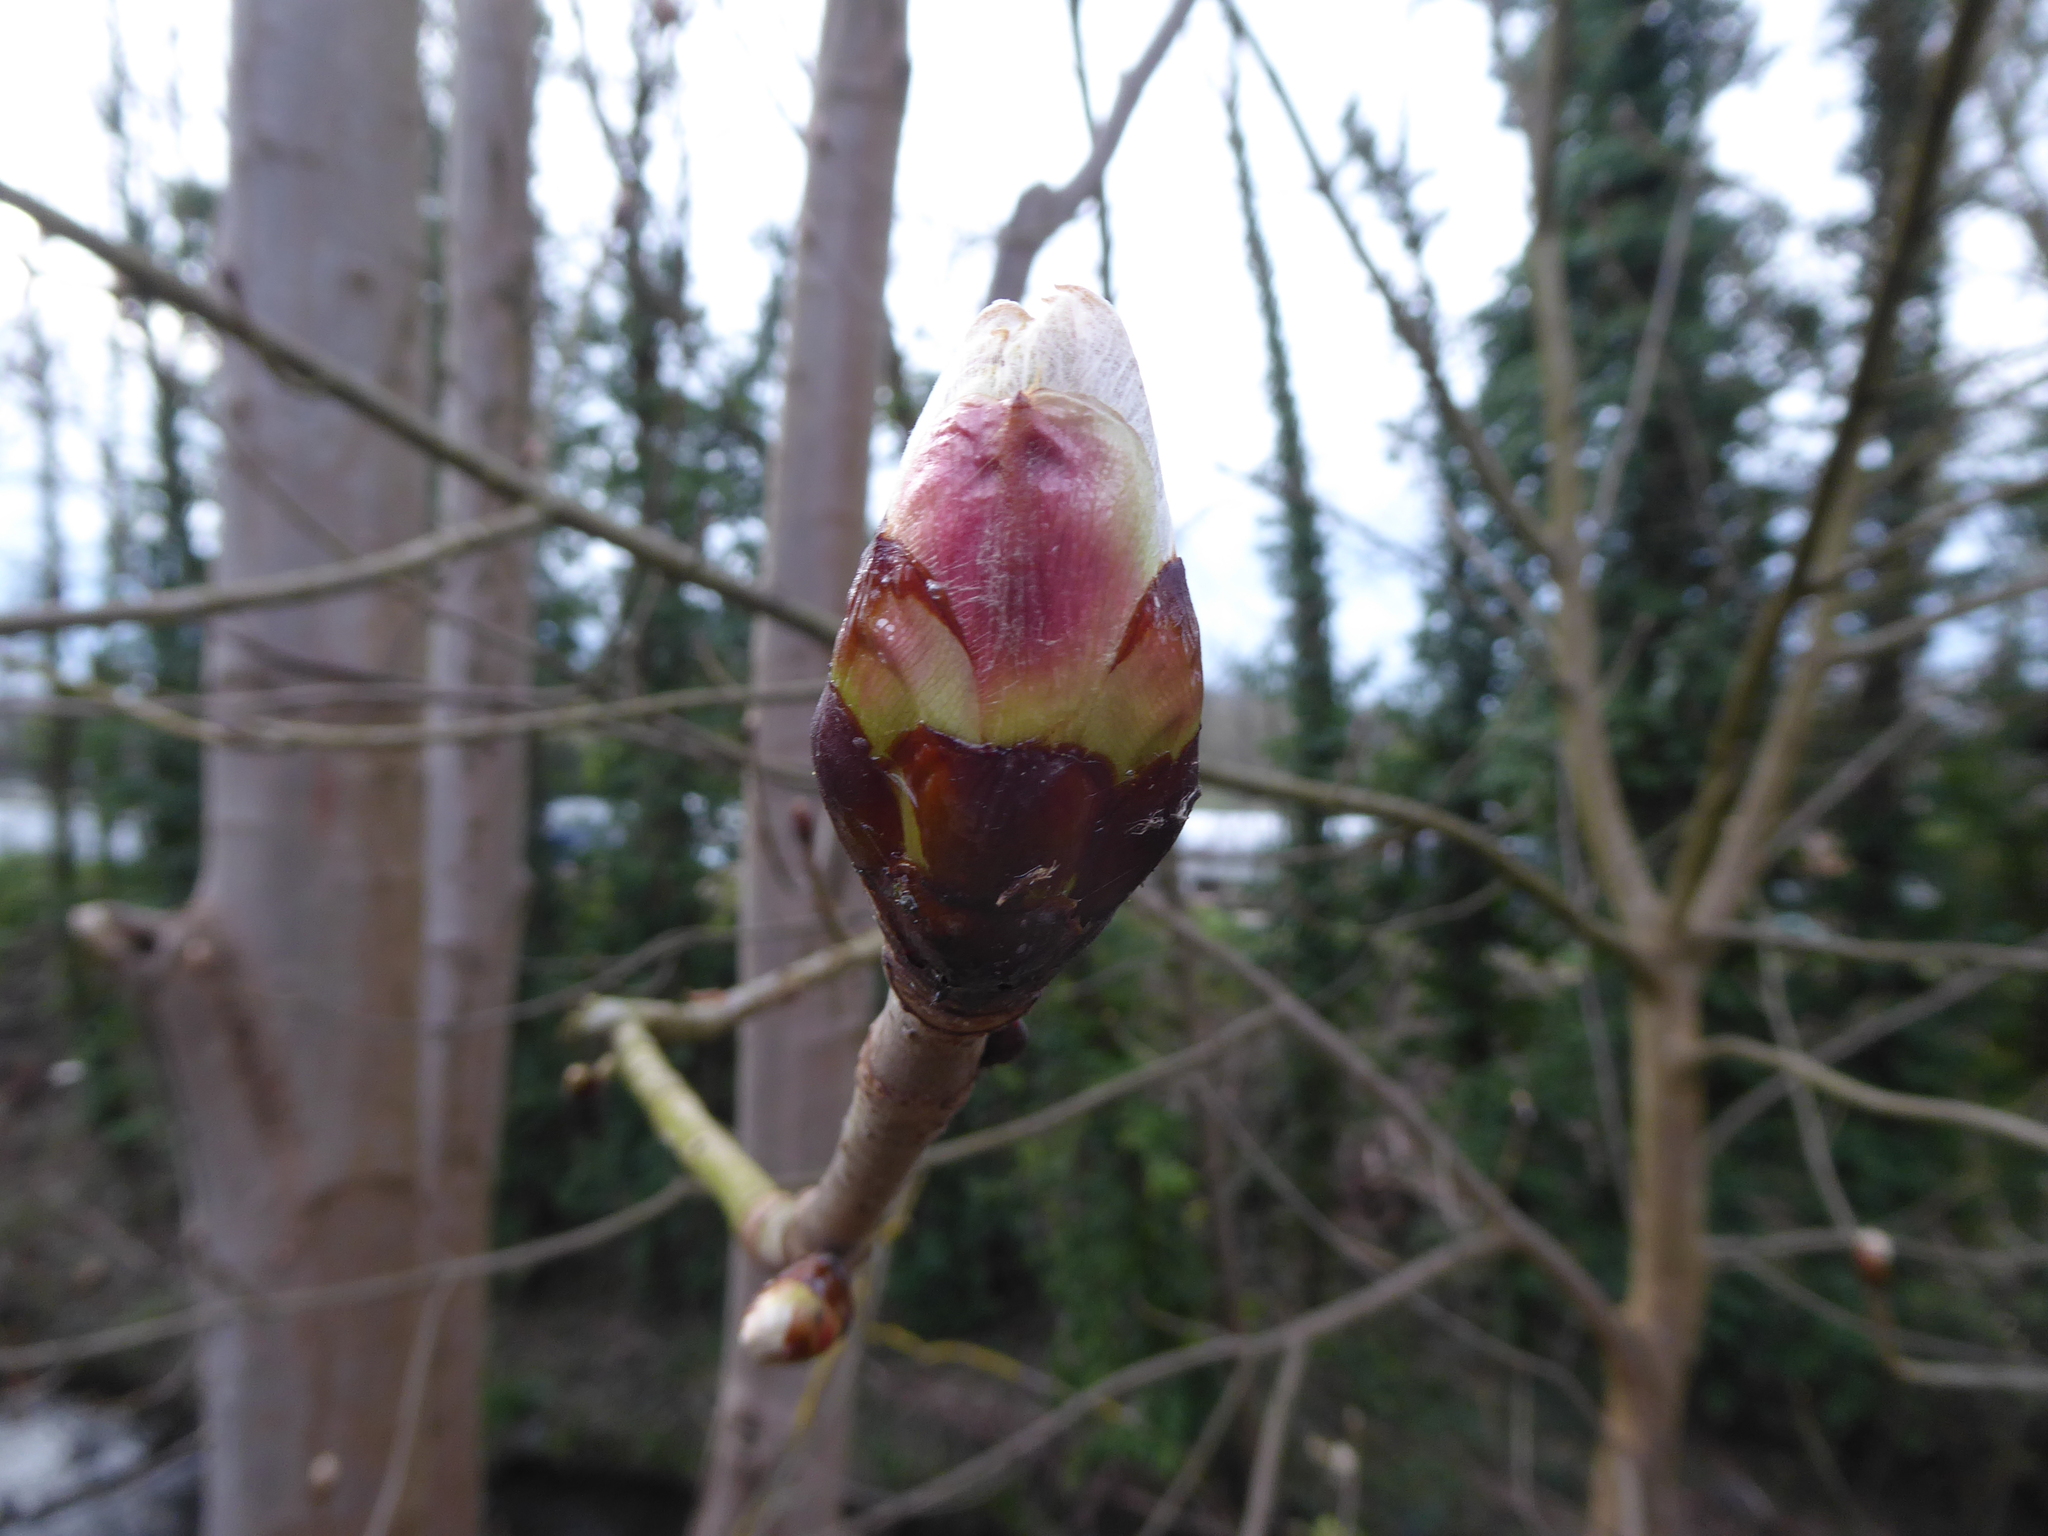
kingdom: Plantae
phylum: Tracheophyta
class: Magnoliopsida
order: Sapindales
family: Sapindaceae
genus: Aesculus
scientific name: Aesculus hippocastanum
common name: Horse-chestnut
